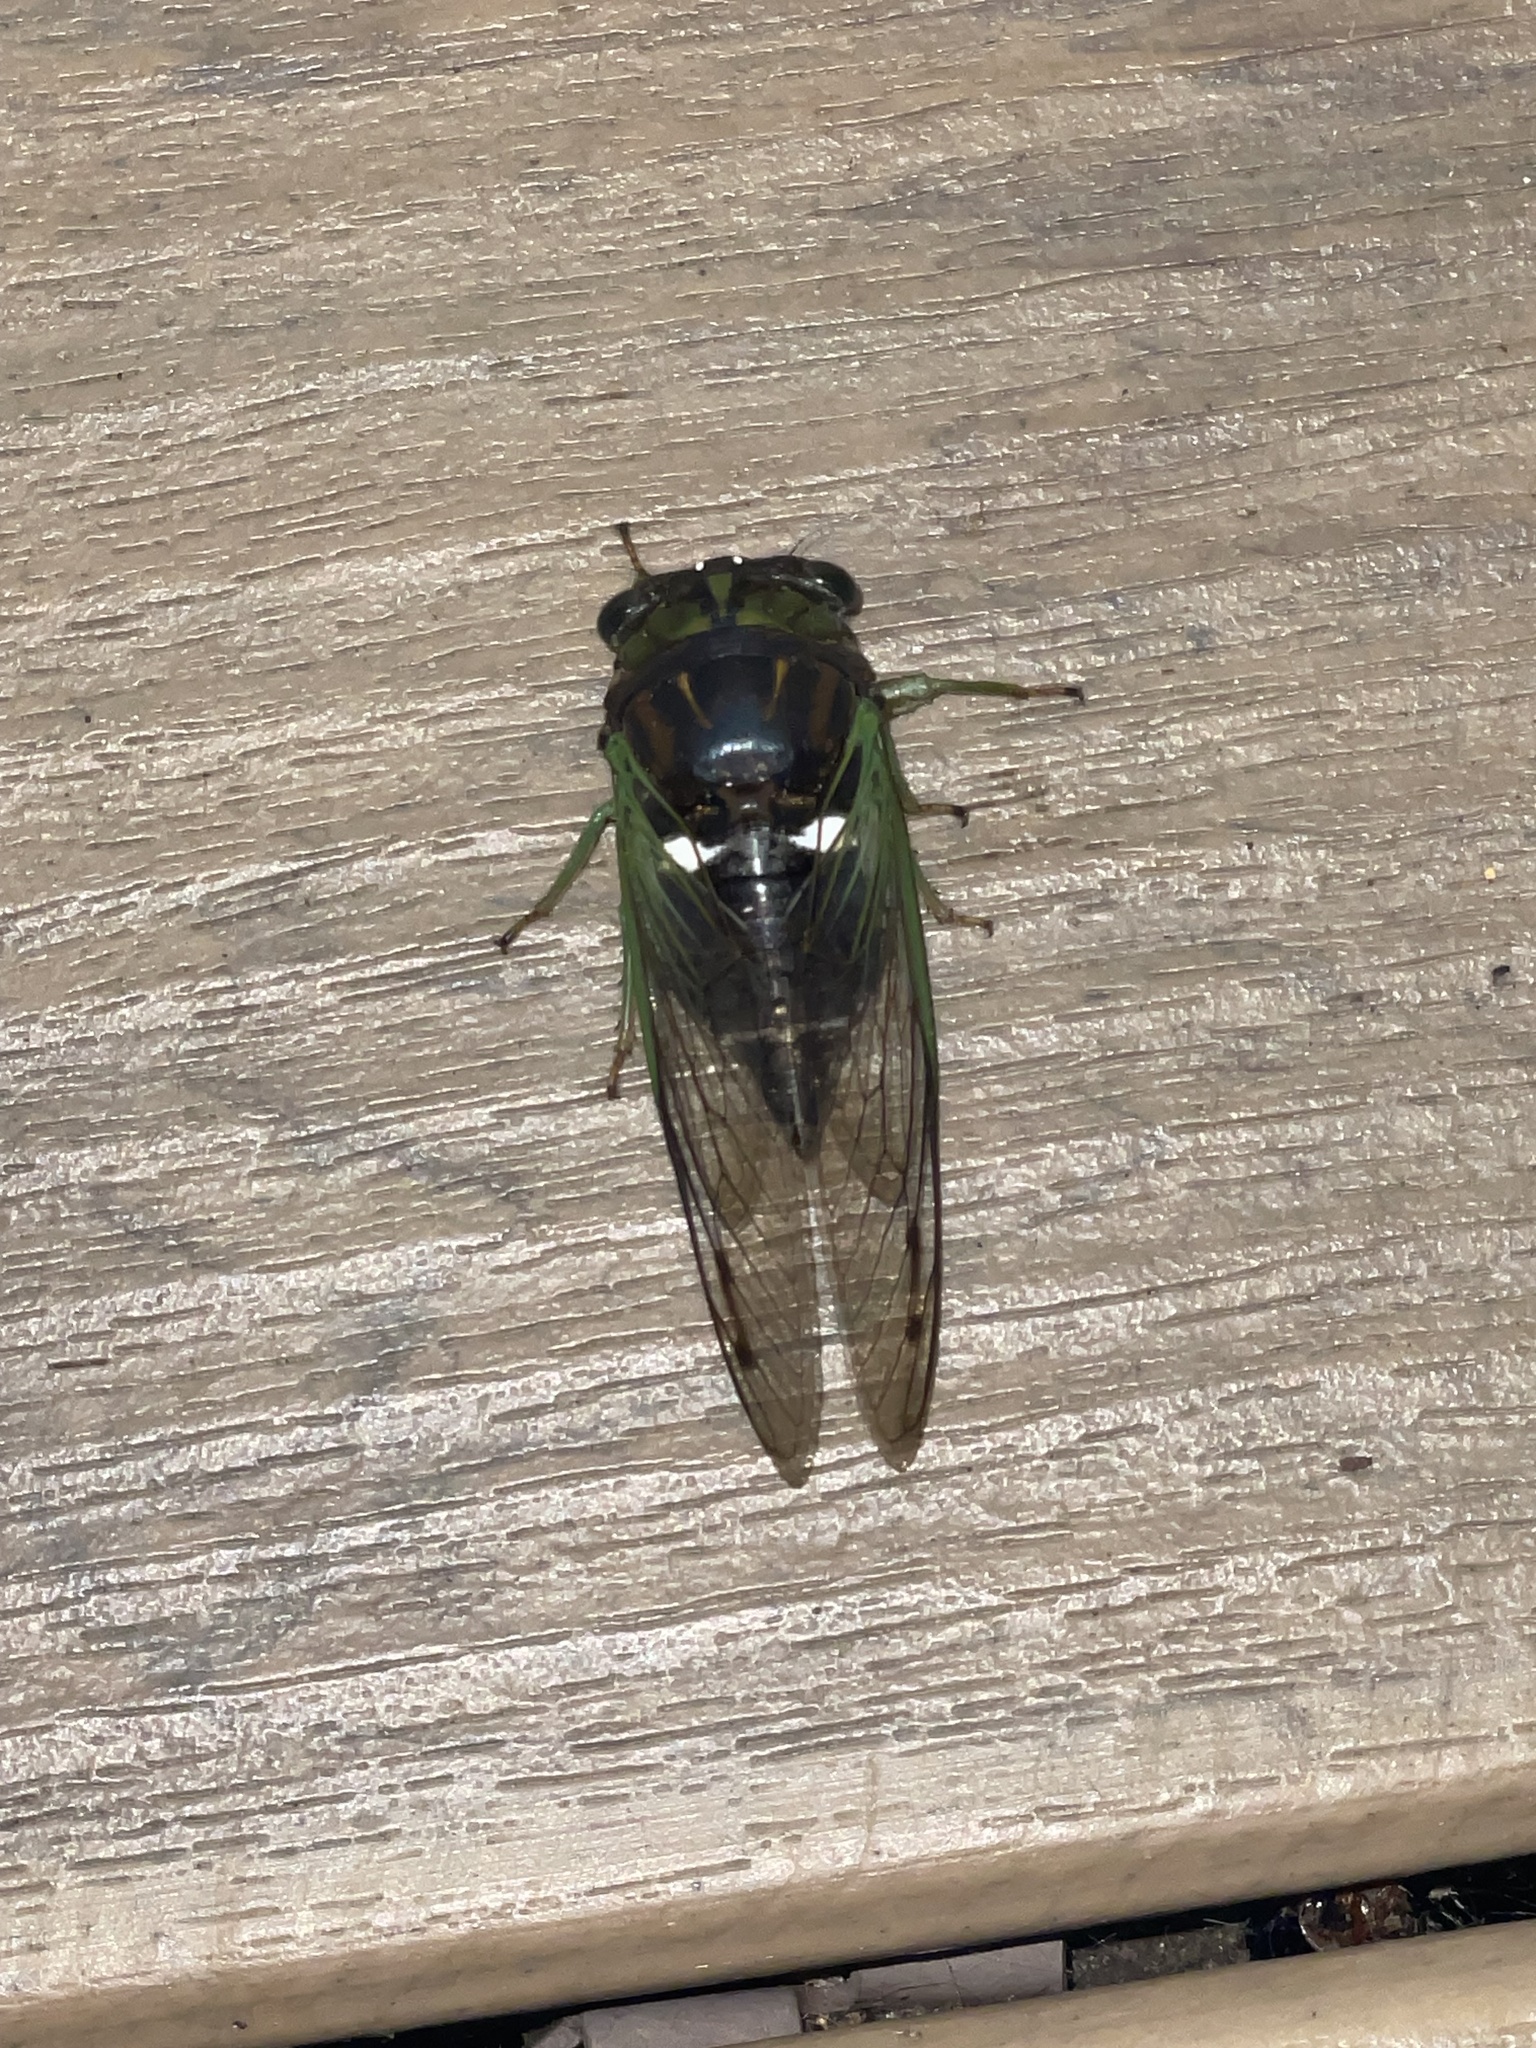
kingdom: Animalia
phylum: Arthropoda
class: Insecta
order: Hemiptera
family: Cicadidae
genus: Neotibicen
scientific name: Neotibicen tibicen
